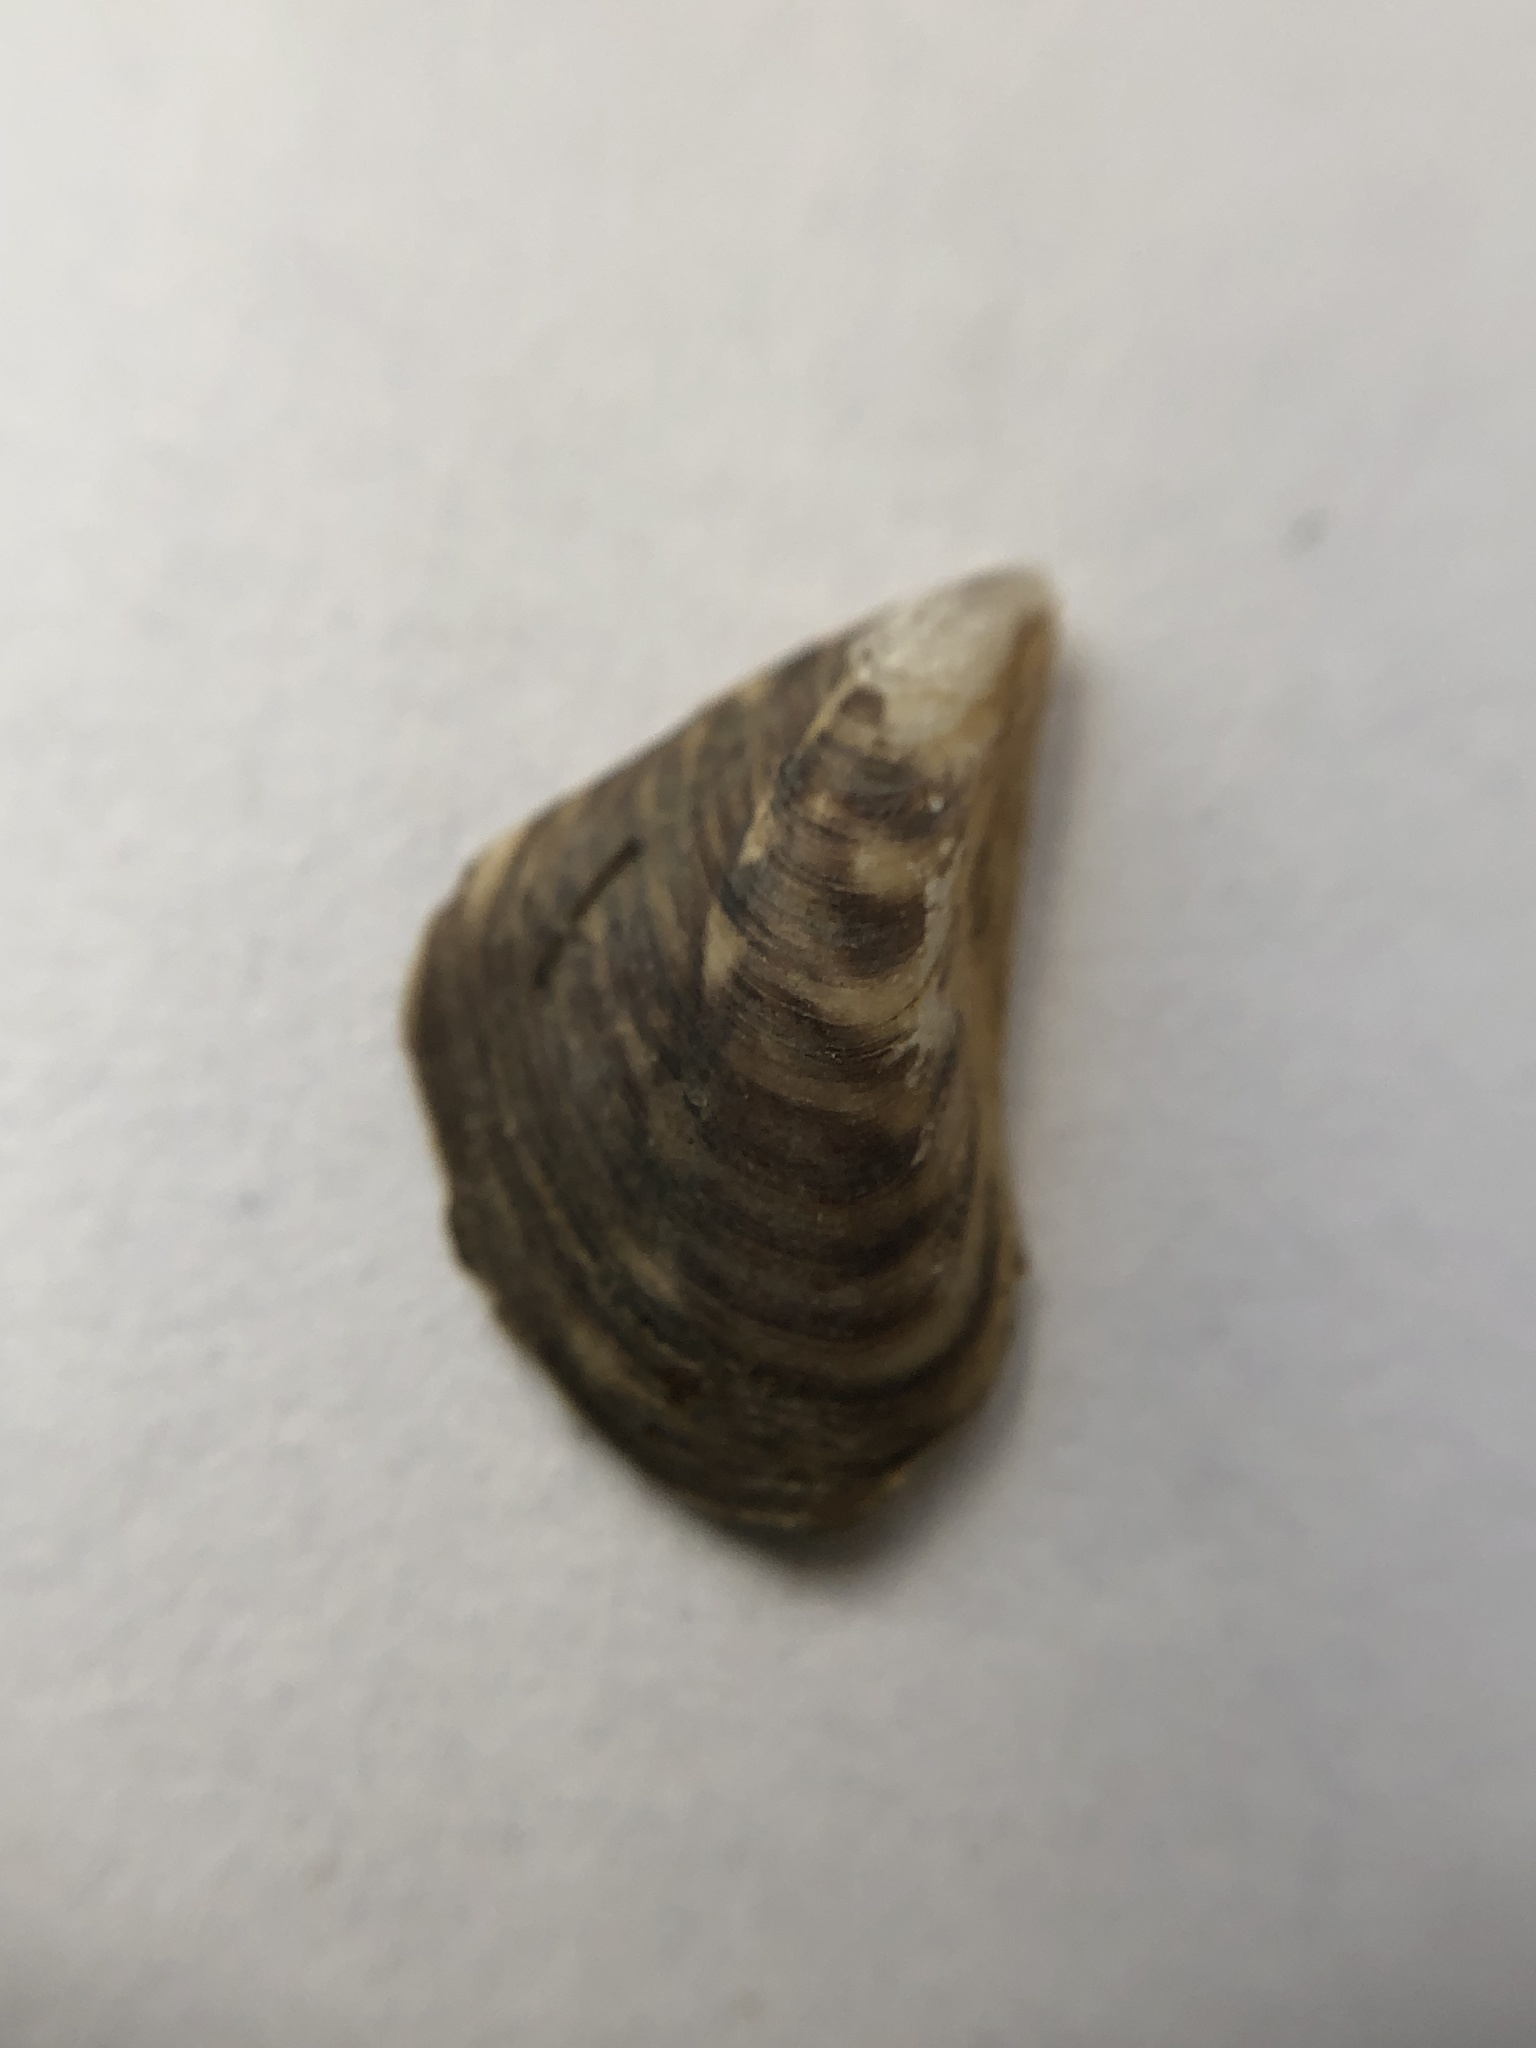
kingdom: Animalia
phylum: Mollusca
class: Bivalvia
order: Myida
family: Dreissenidae
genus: Dreissena
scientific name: Dreissena bugensis
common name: Quagga mussel
